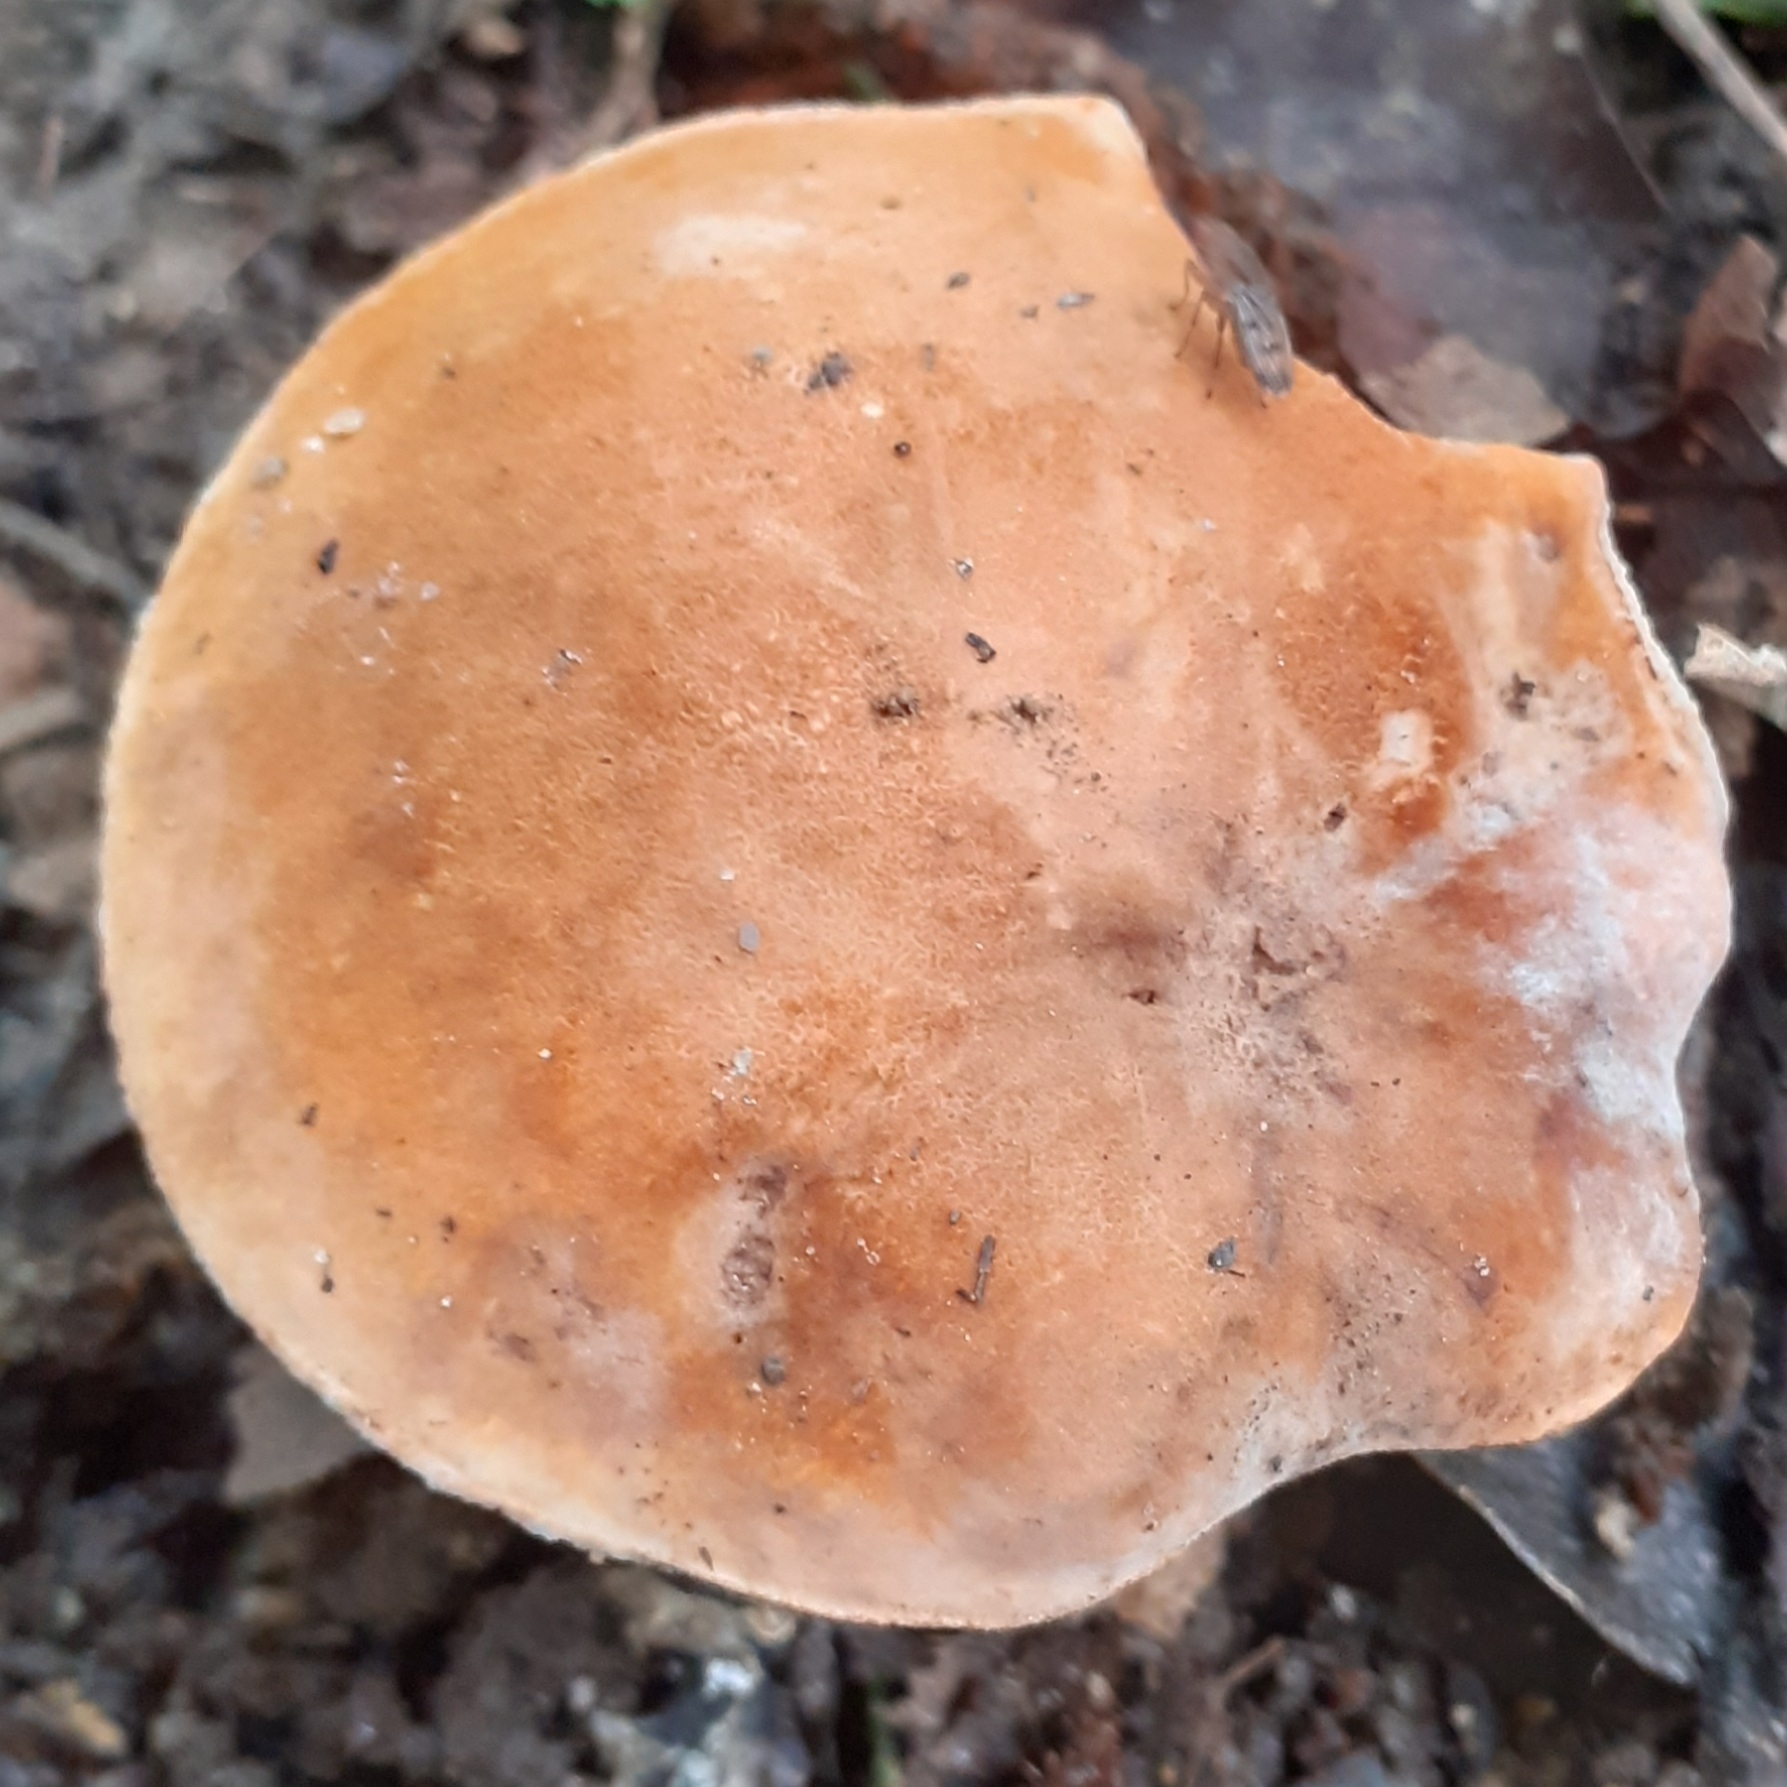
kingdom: Fungi
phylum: Basidiomycota
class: Agaricomycetes
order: Boletales
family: Gyroporaceae
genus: Gyroporus
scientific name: Gyroporus castaneus
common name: Chestnut bolete
